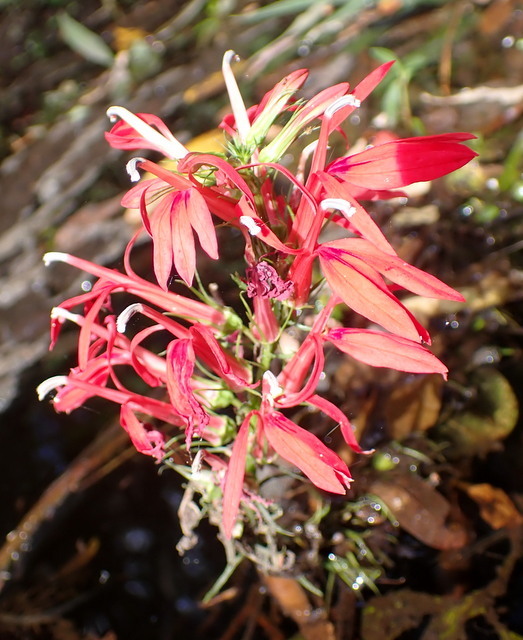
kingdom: Plantae
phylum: Tracheophyta
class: Magnoliopsida
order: Asterales
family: Campanulaceae
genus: Lobelia
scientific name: Lobelia cardinalis
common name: Cardinal flower
